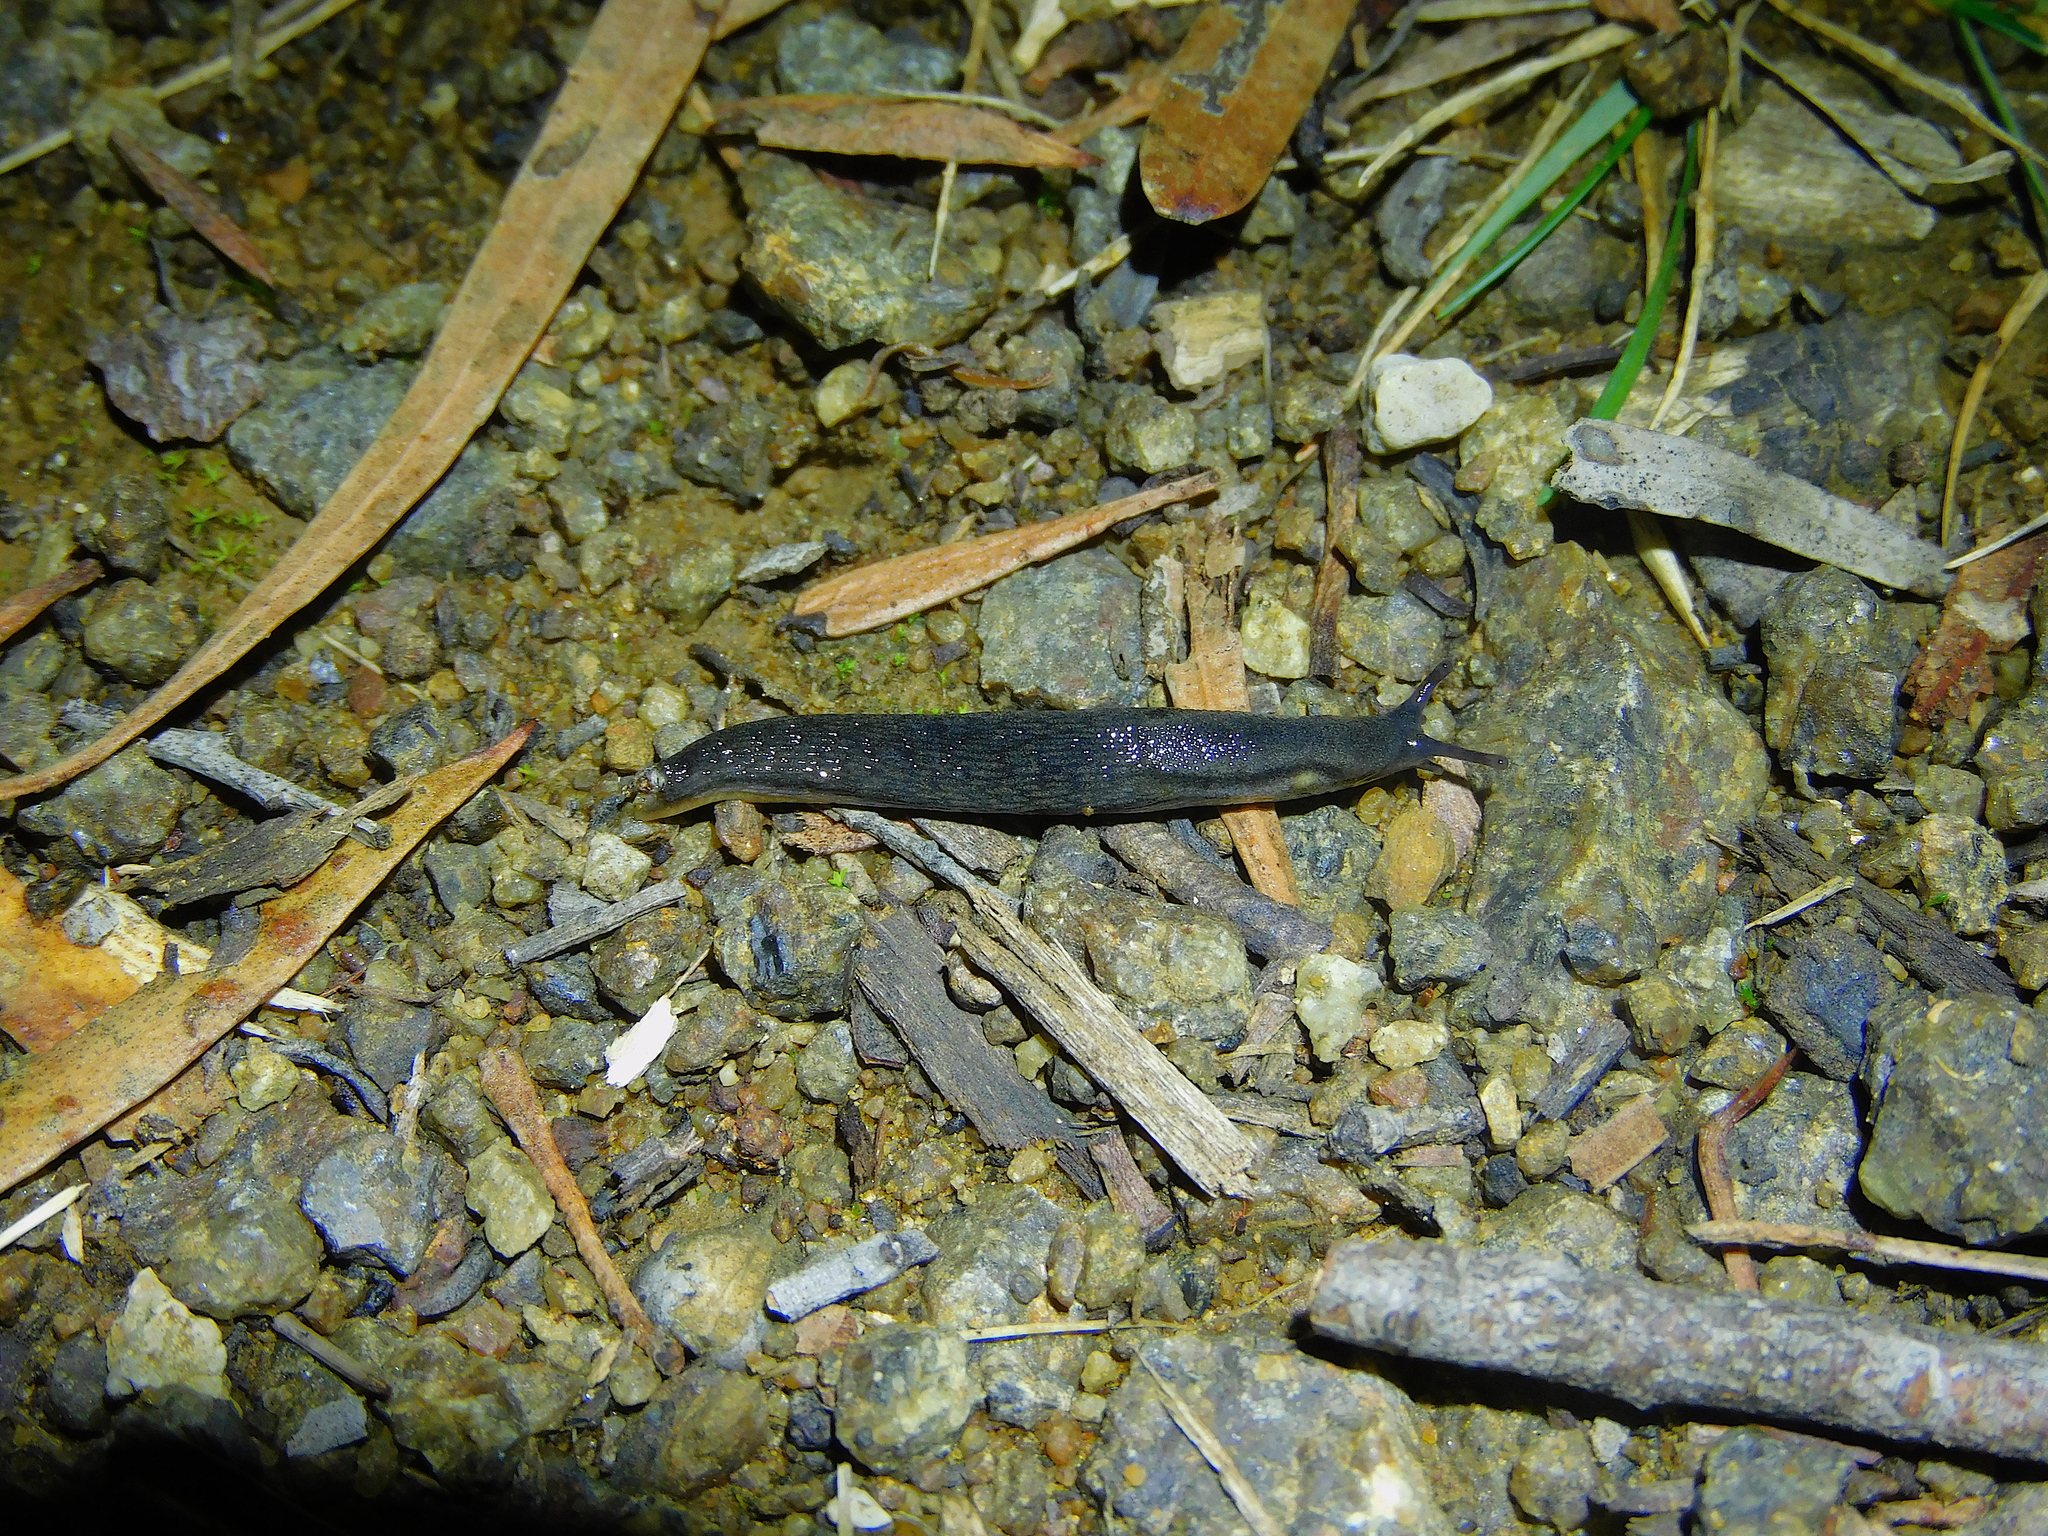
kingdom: Animalia
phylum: Mollusca
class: Gastropoda
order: Stylommatophora
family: Arionidae
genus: Arion
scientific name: Arion hortensis
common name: Garden arion
